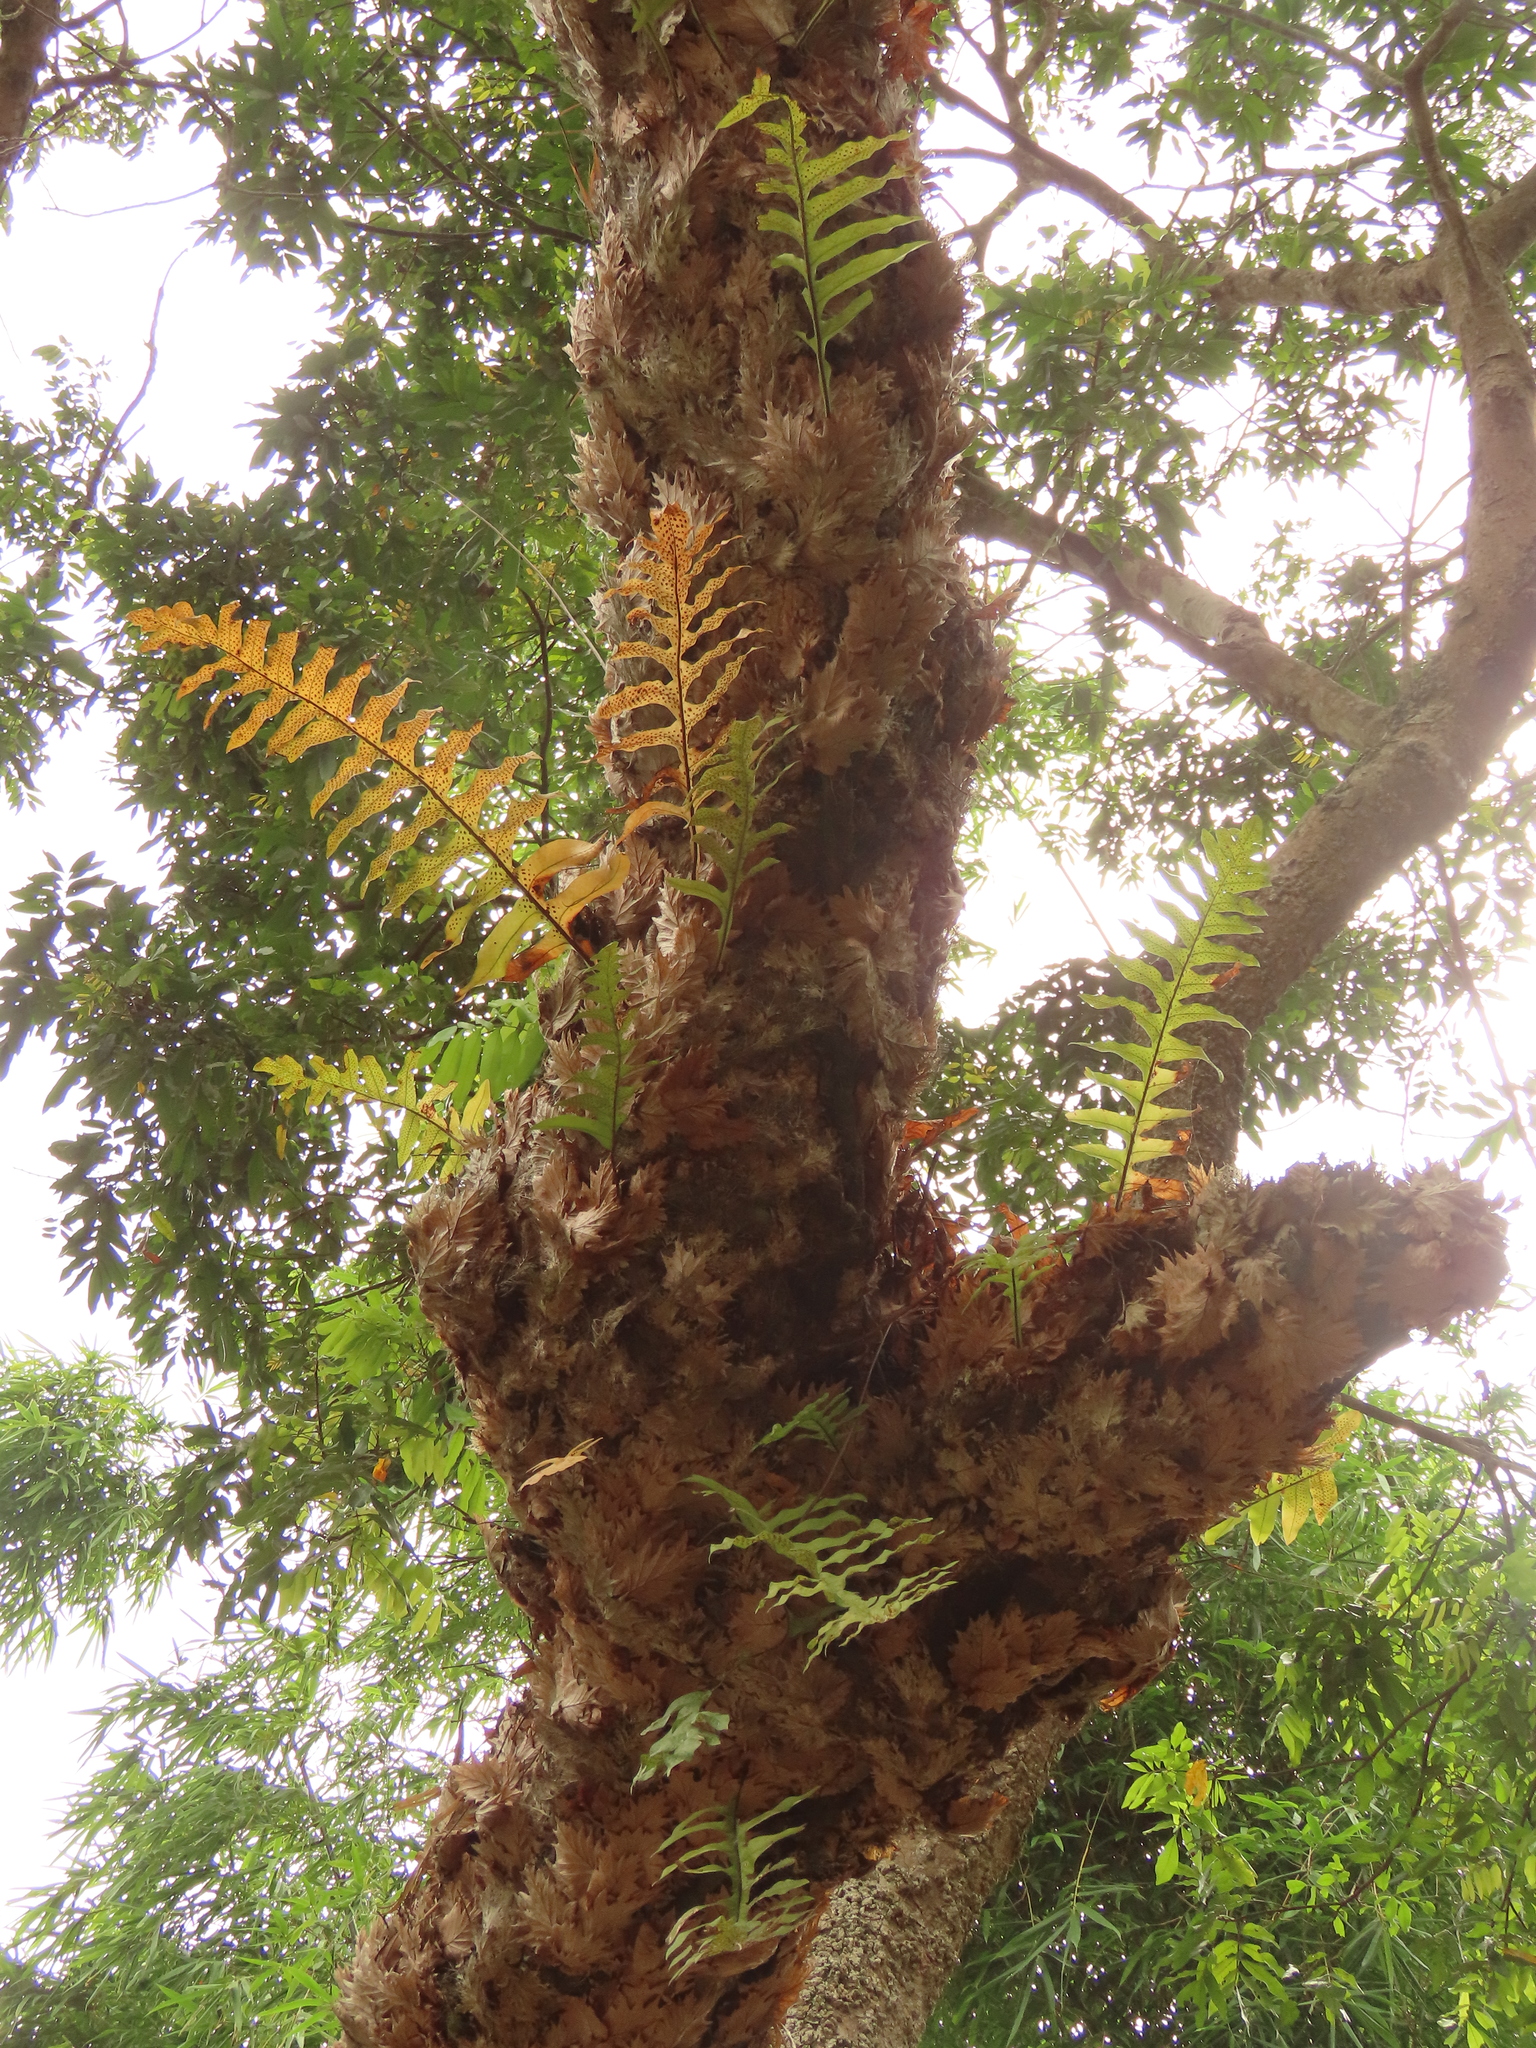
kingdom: Plantae
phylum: Tracheophyta
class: Polypodiopsida
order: Polypodiales
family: Polypodiaceae
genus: Drynaria
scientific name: Drynaria roosii
